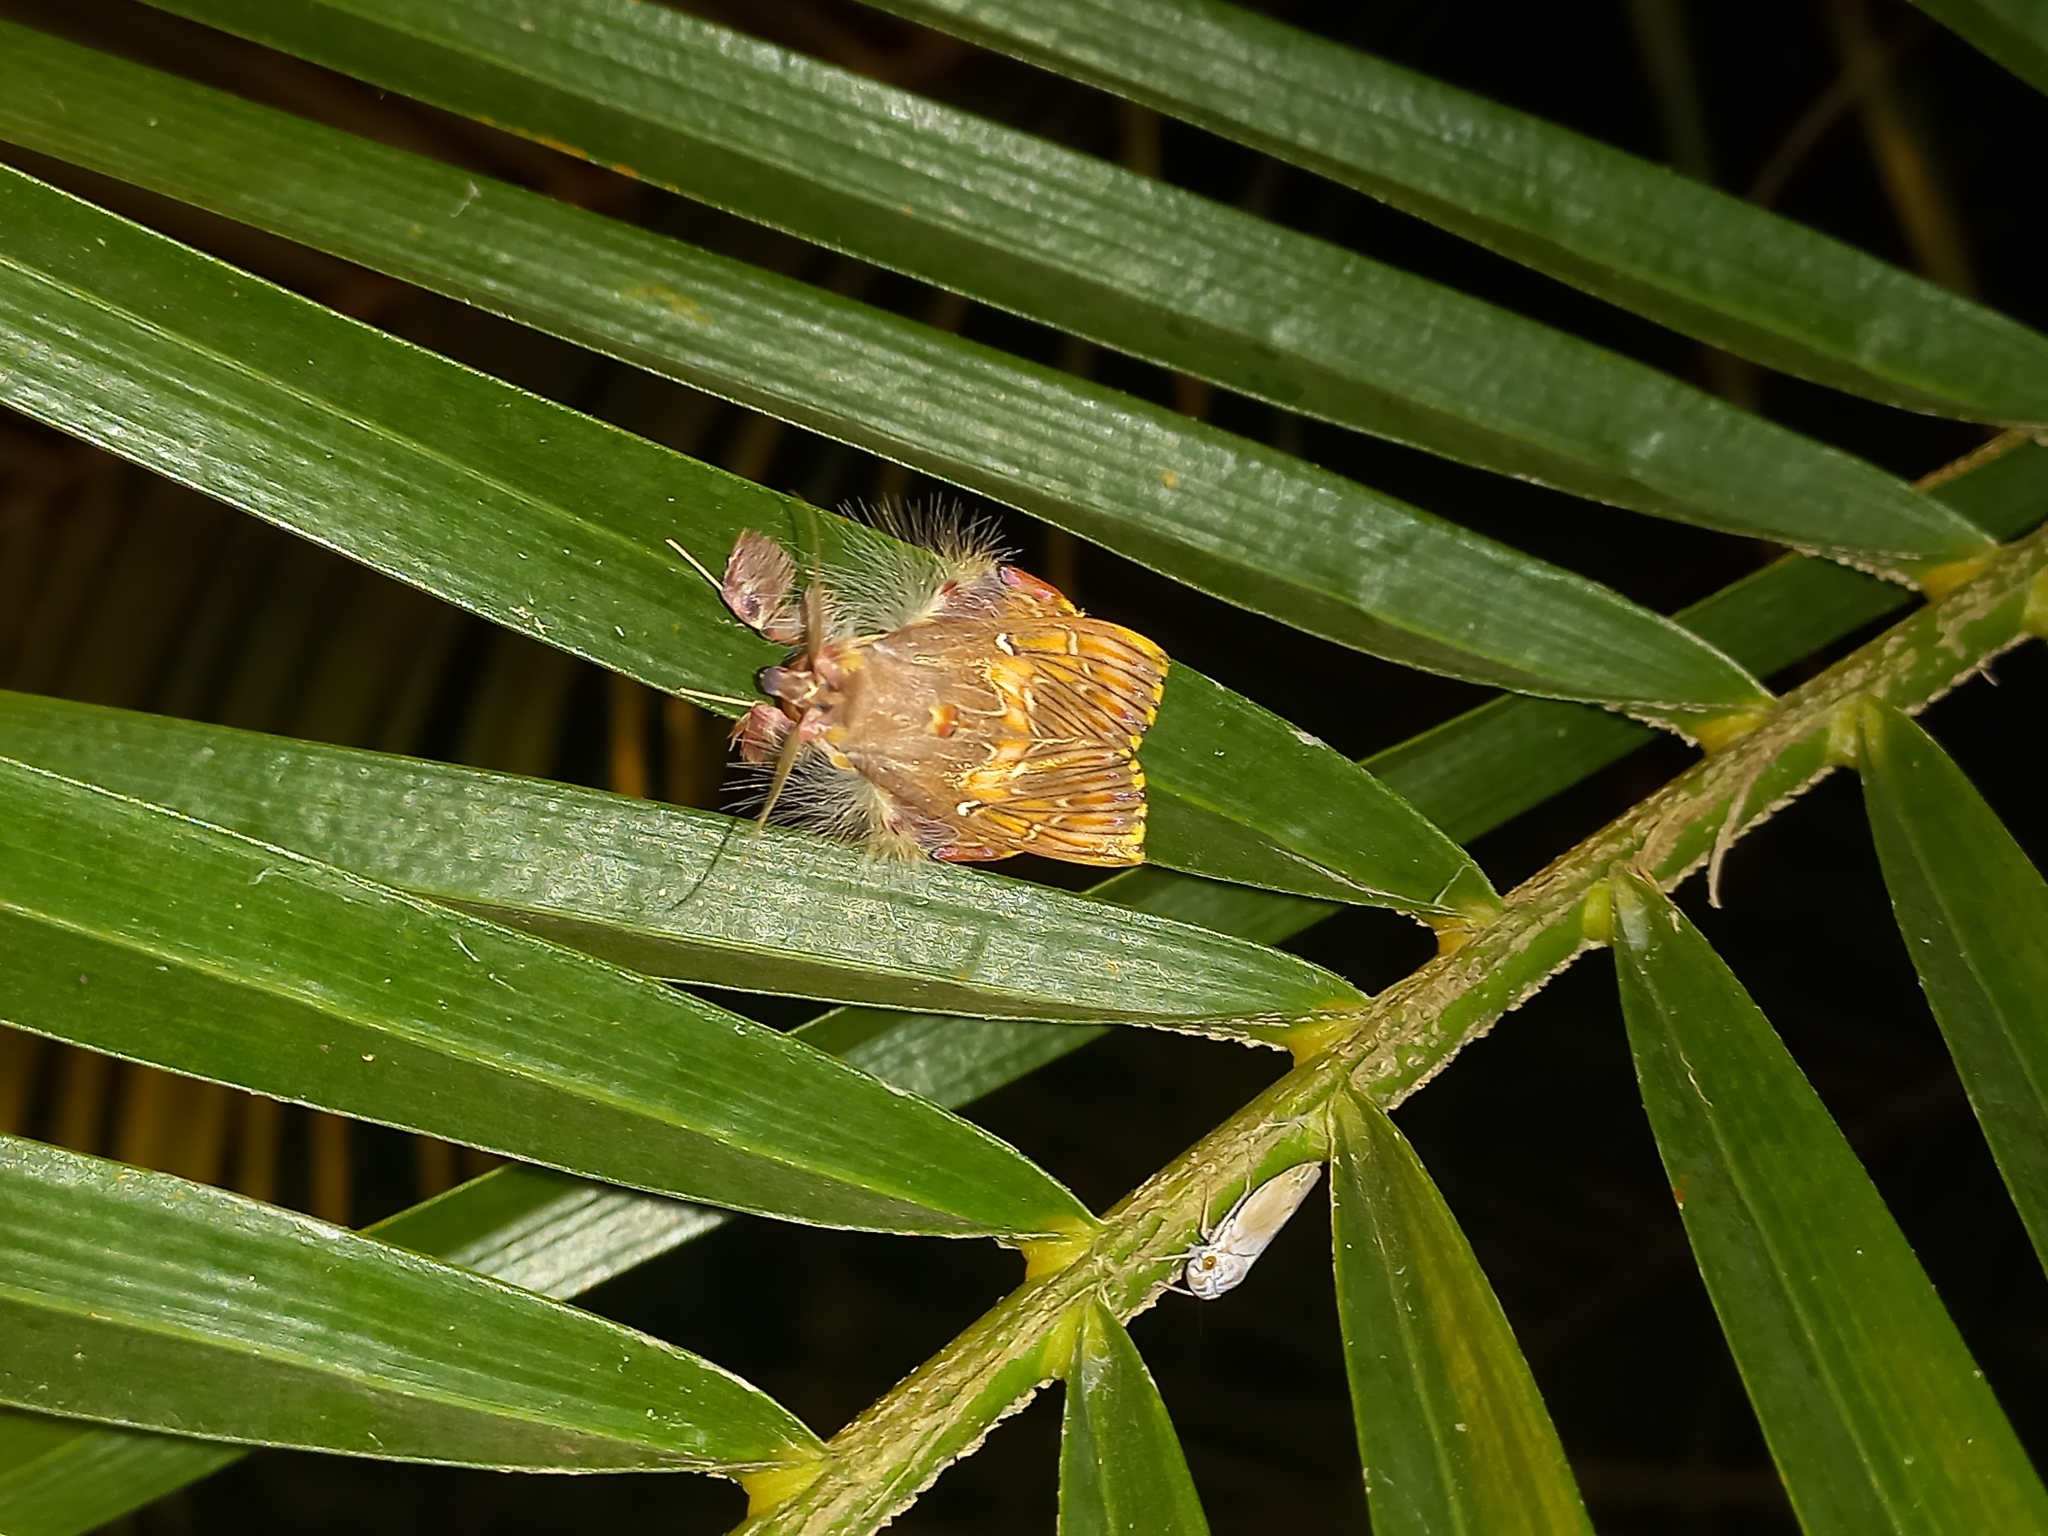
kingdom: Animalia
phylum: Arthropoda
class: Insecta
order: Lepidoptera
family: Erebidae
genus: Sosxetra
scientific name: Sosxetra grata
